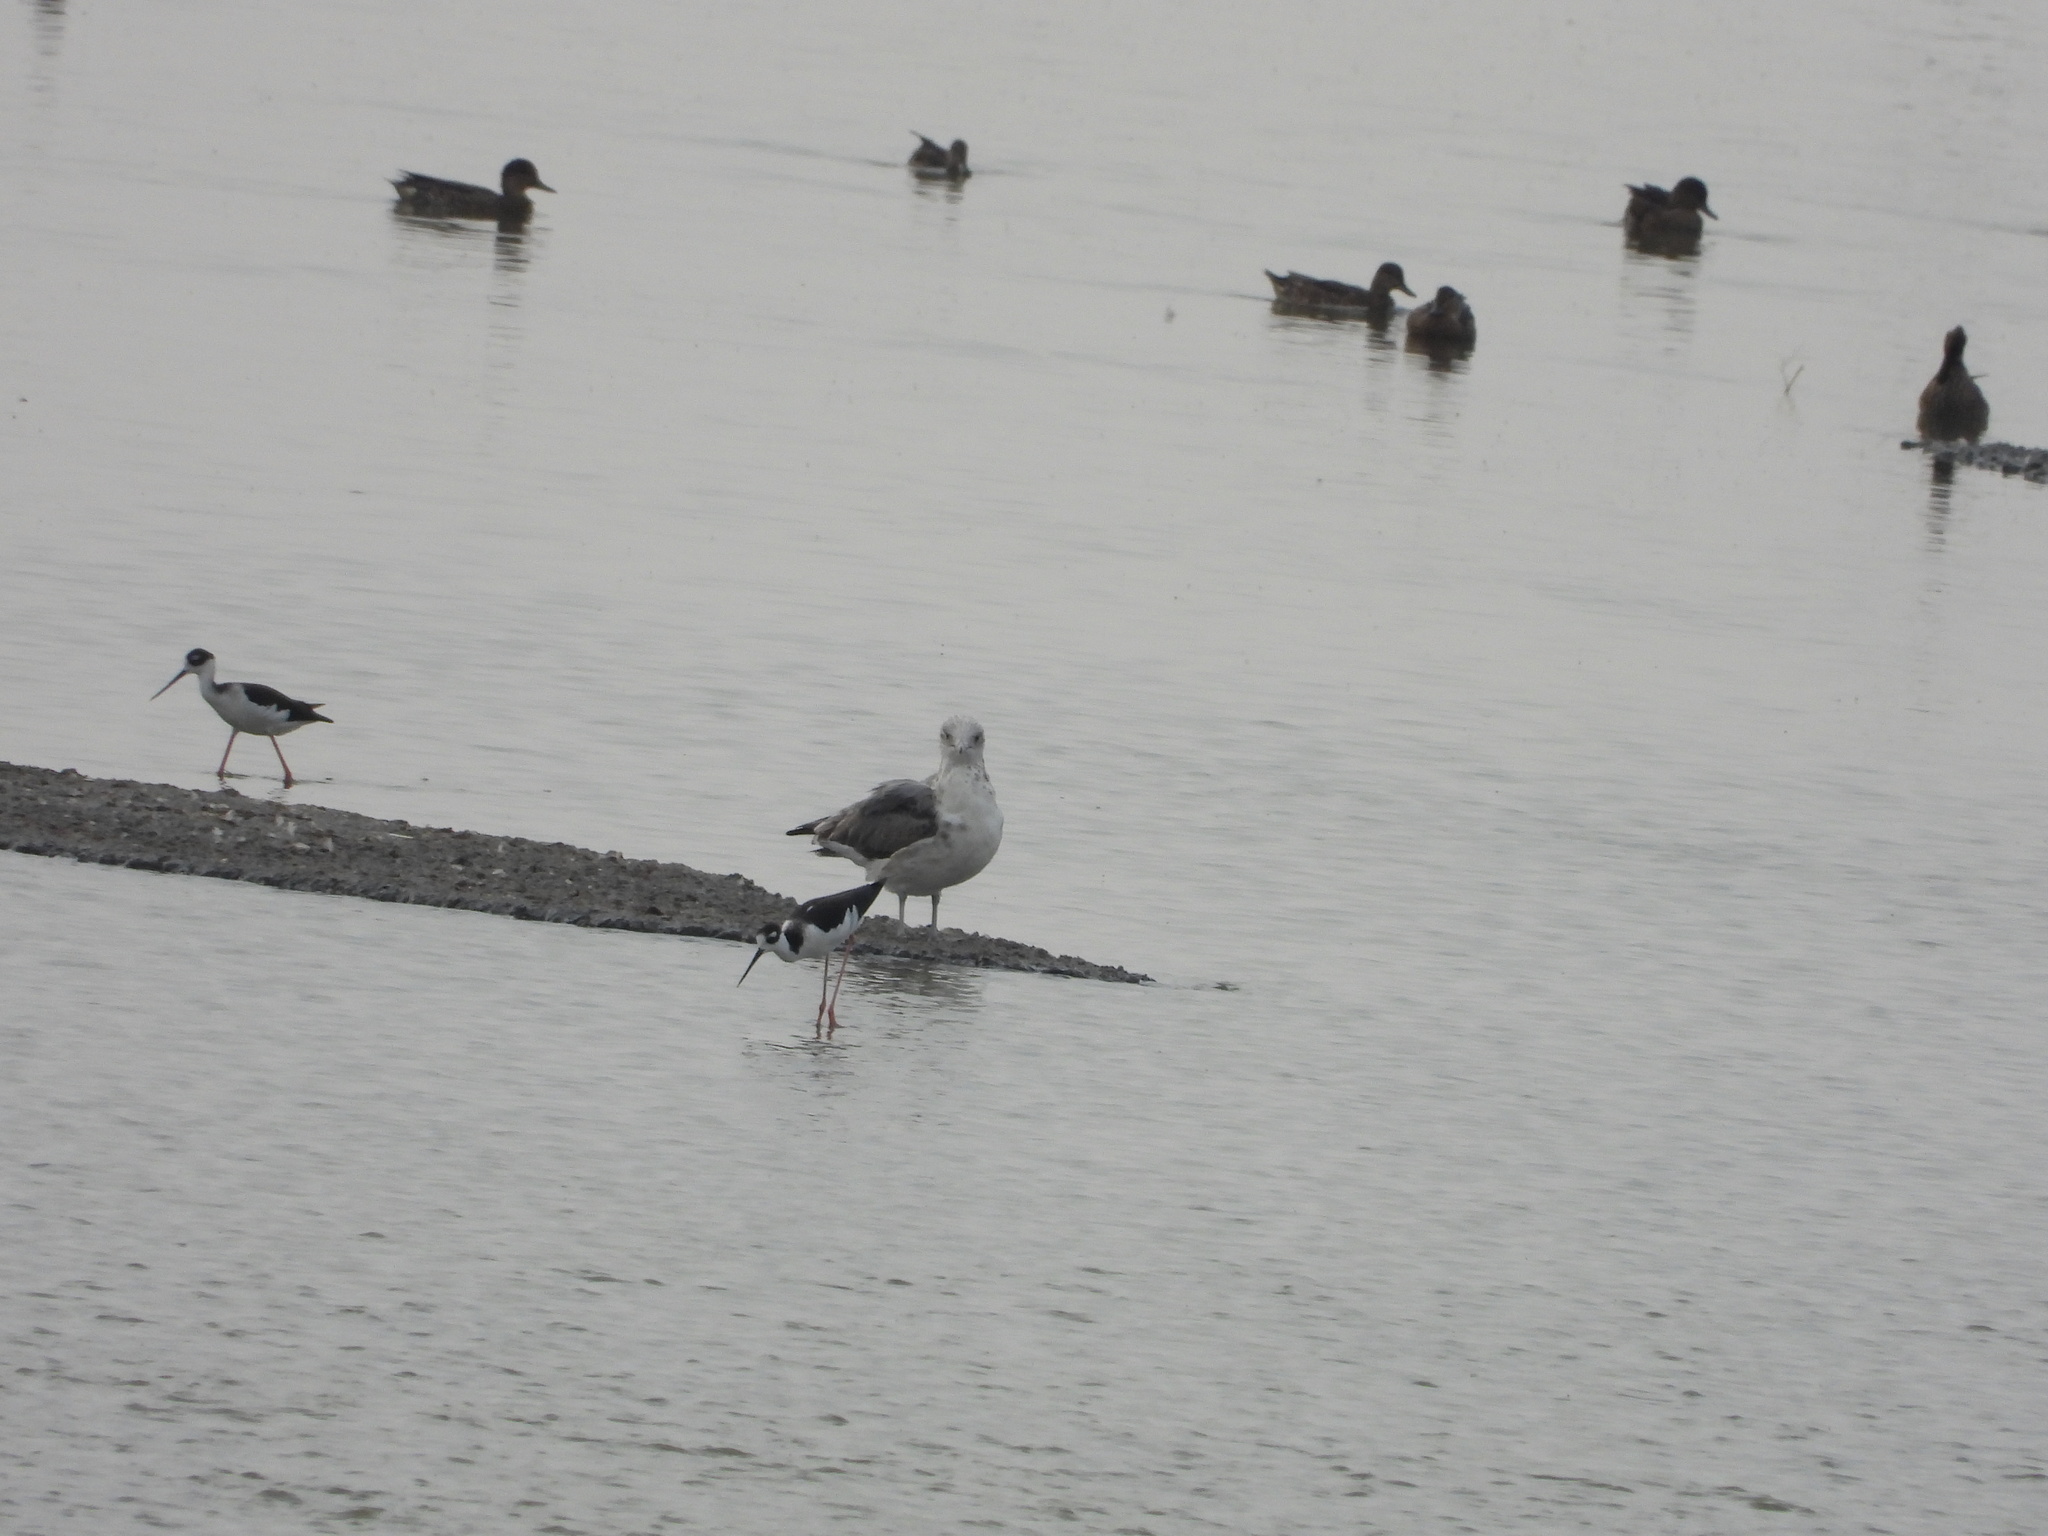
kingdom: Animalia
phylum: Chordata
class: Aves
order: Charadriiformes
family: Laridae
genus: Larus
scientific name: Larus californicus
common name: California gull
